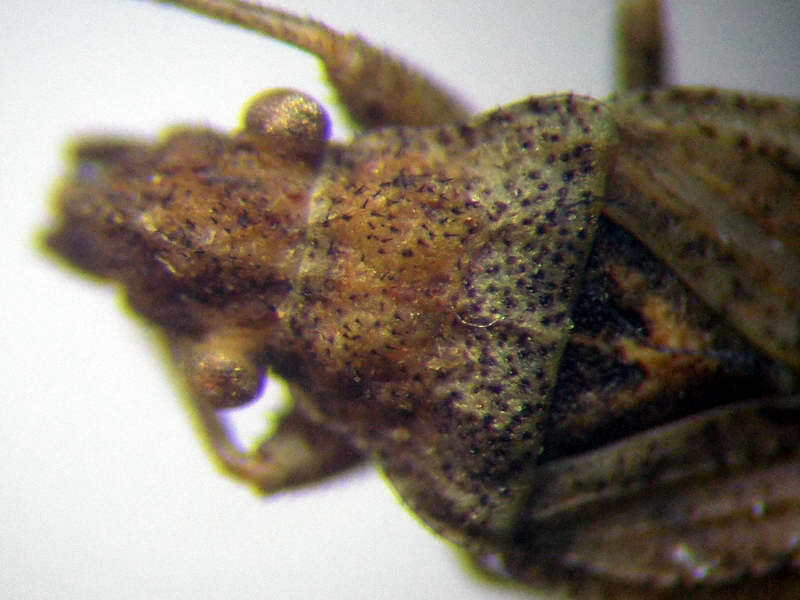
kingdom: Animalia
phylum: Arthropoda
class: Insecta
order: Hemiptera
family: Rhyparochromidae
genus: Diomphalus
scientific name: Diomphalus hispidulus
